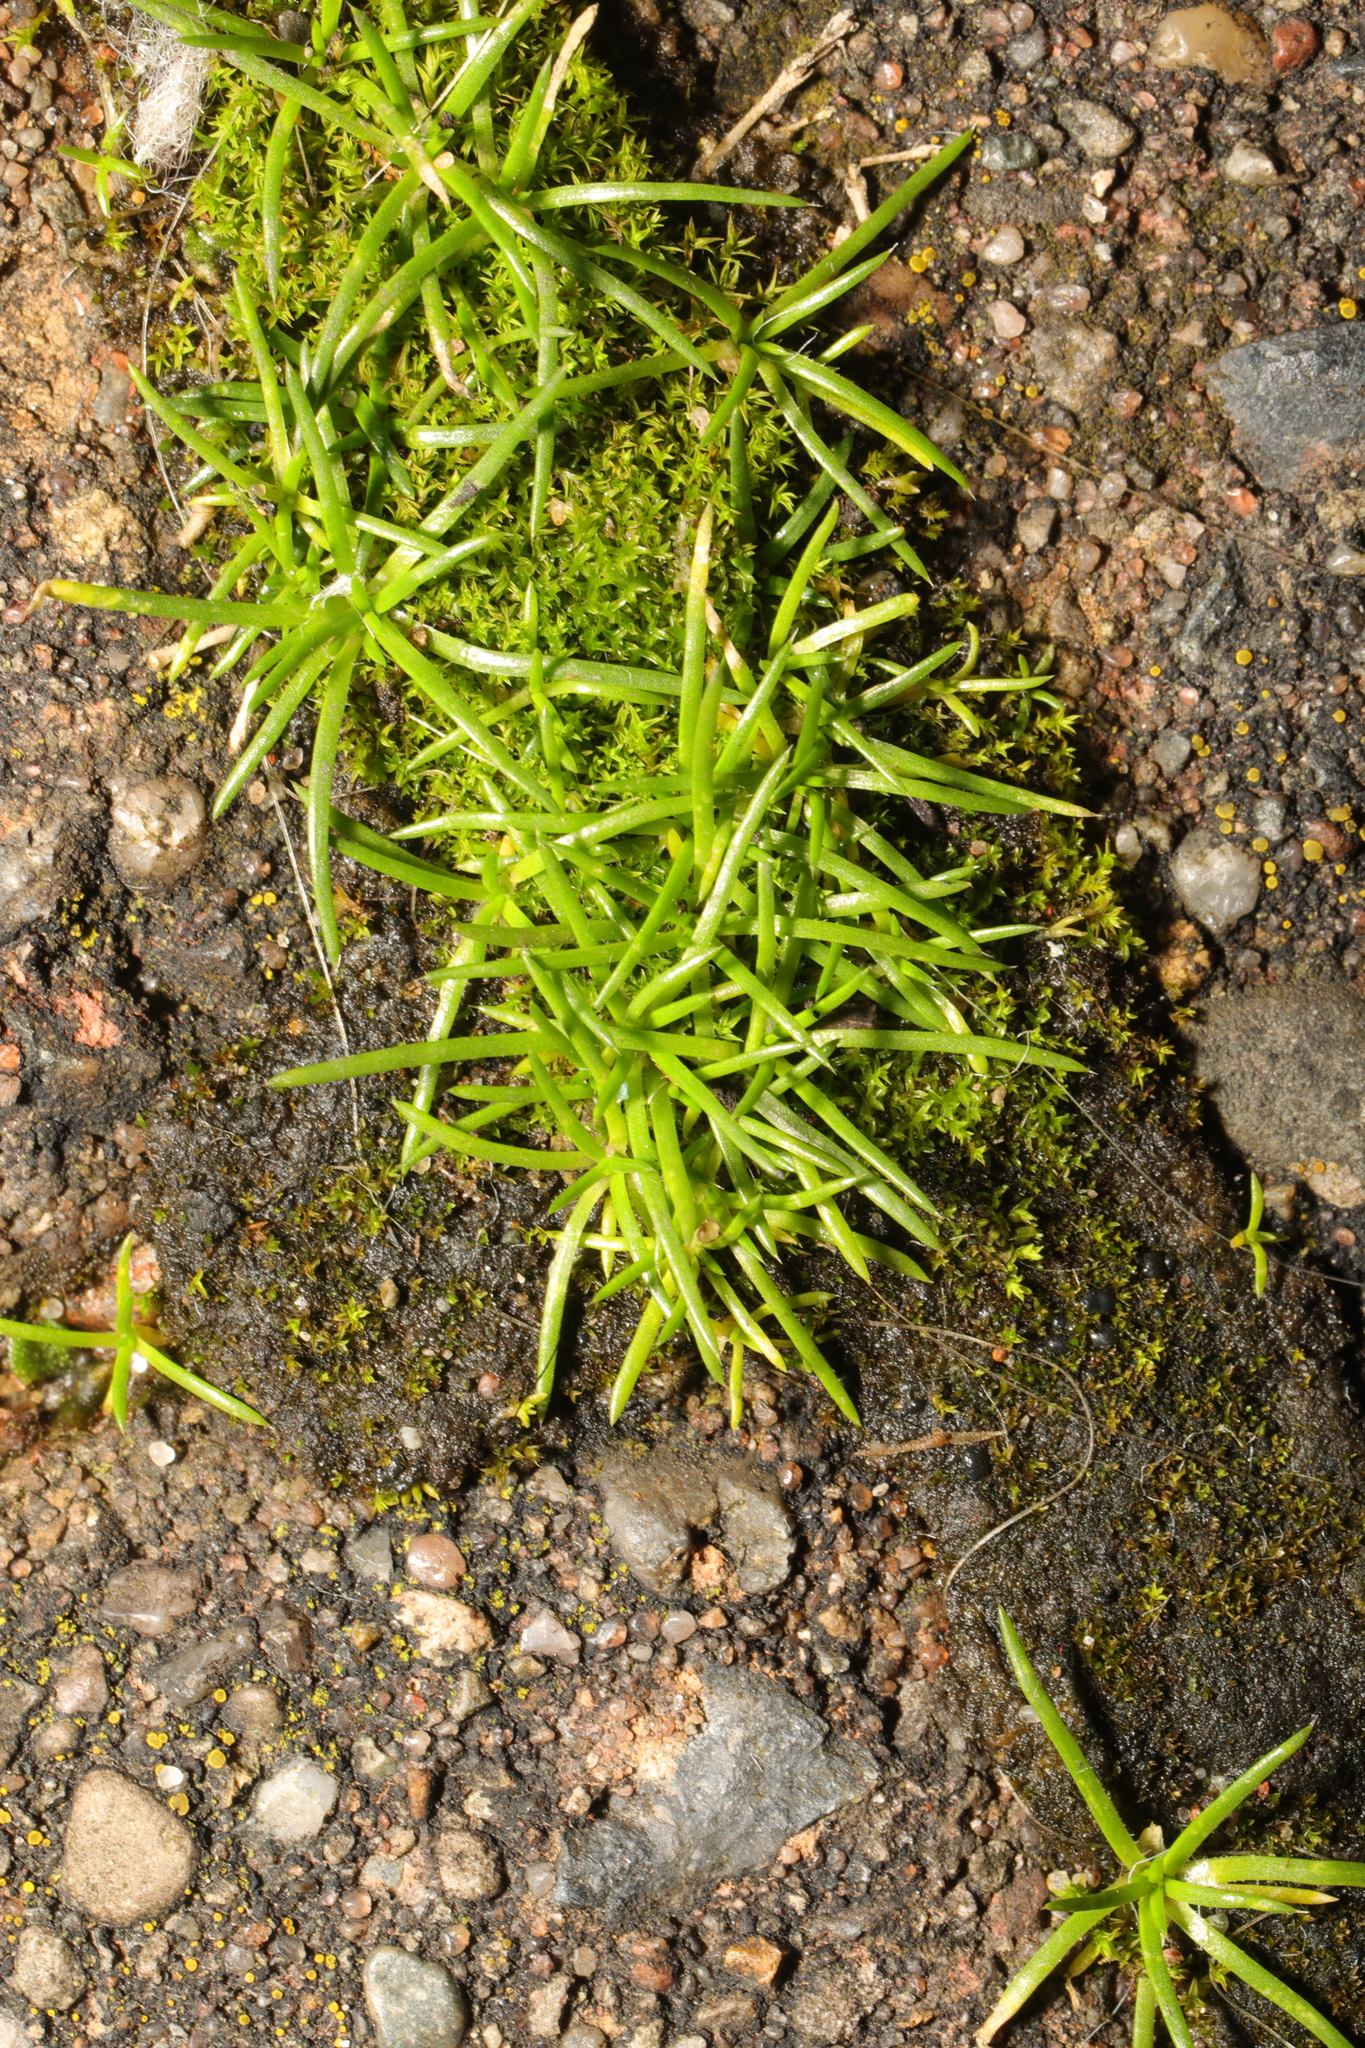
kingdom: Plantae
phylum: Tracheophyta
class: Magnoliopsida
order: Caryophyllales
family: Caryophyllaceae
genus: Sagina
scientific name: Sagina procumbens
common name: Procumbent pearlwort
